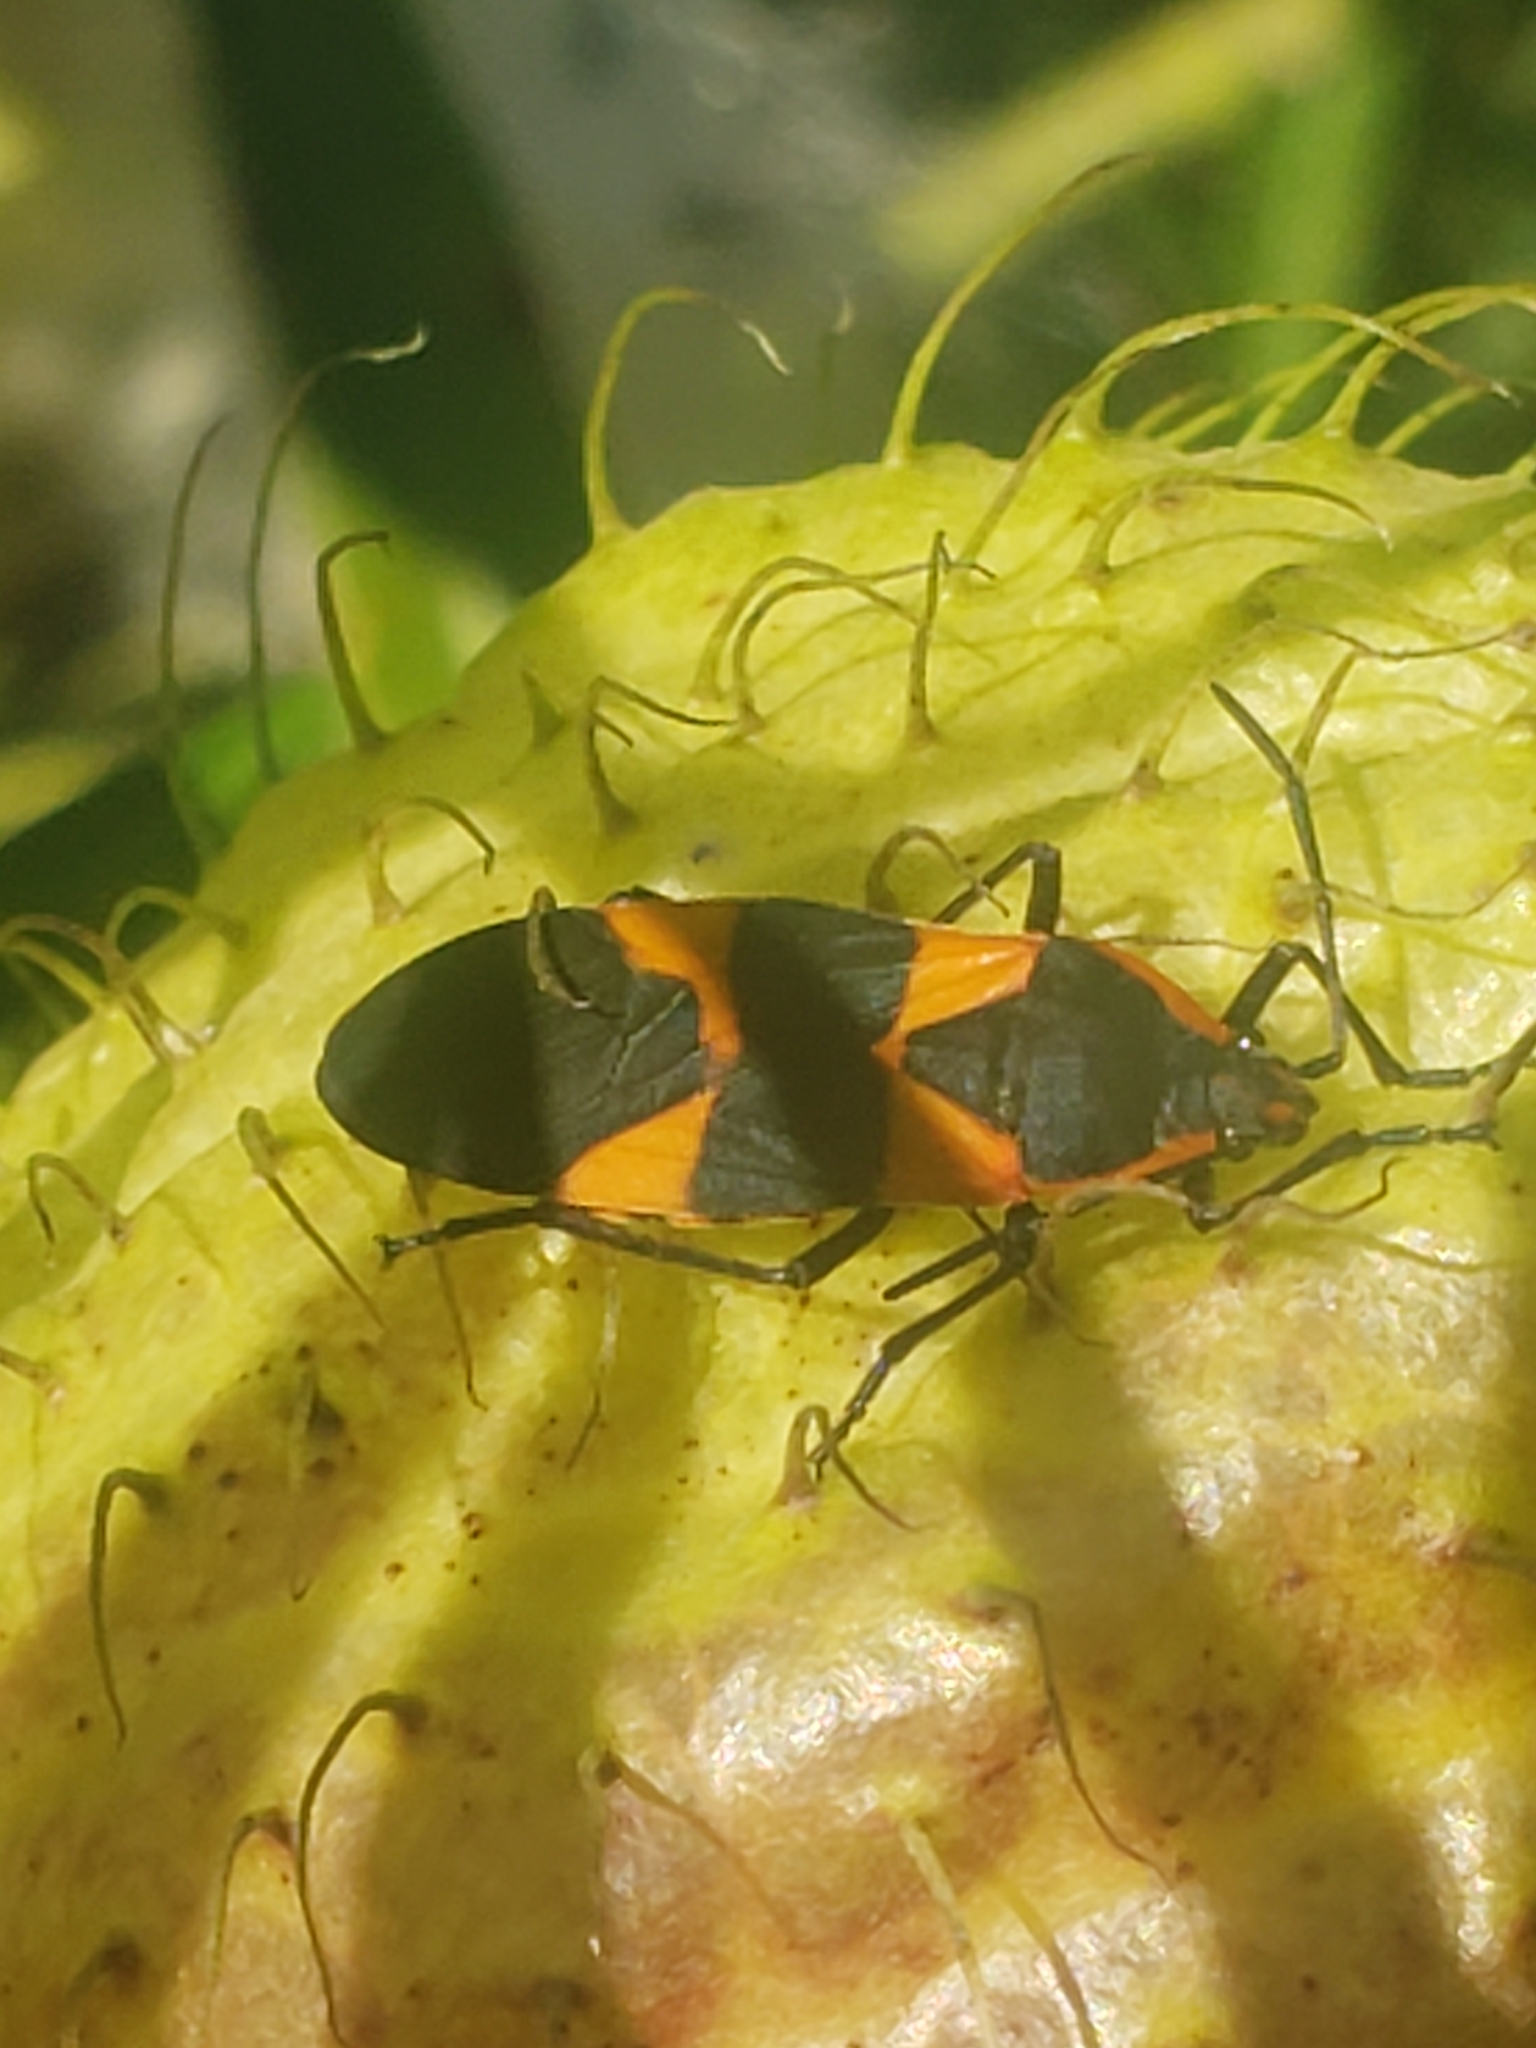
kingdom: Animalia
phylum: Arthropoda
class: Insecta
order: Hemiptera
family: Lygaeidae
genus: Oncopeltus
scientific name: Oncopeltus fasciatus
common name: Large milkweed bug
